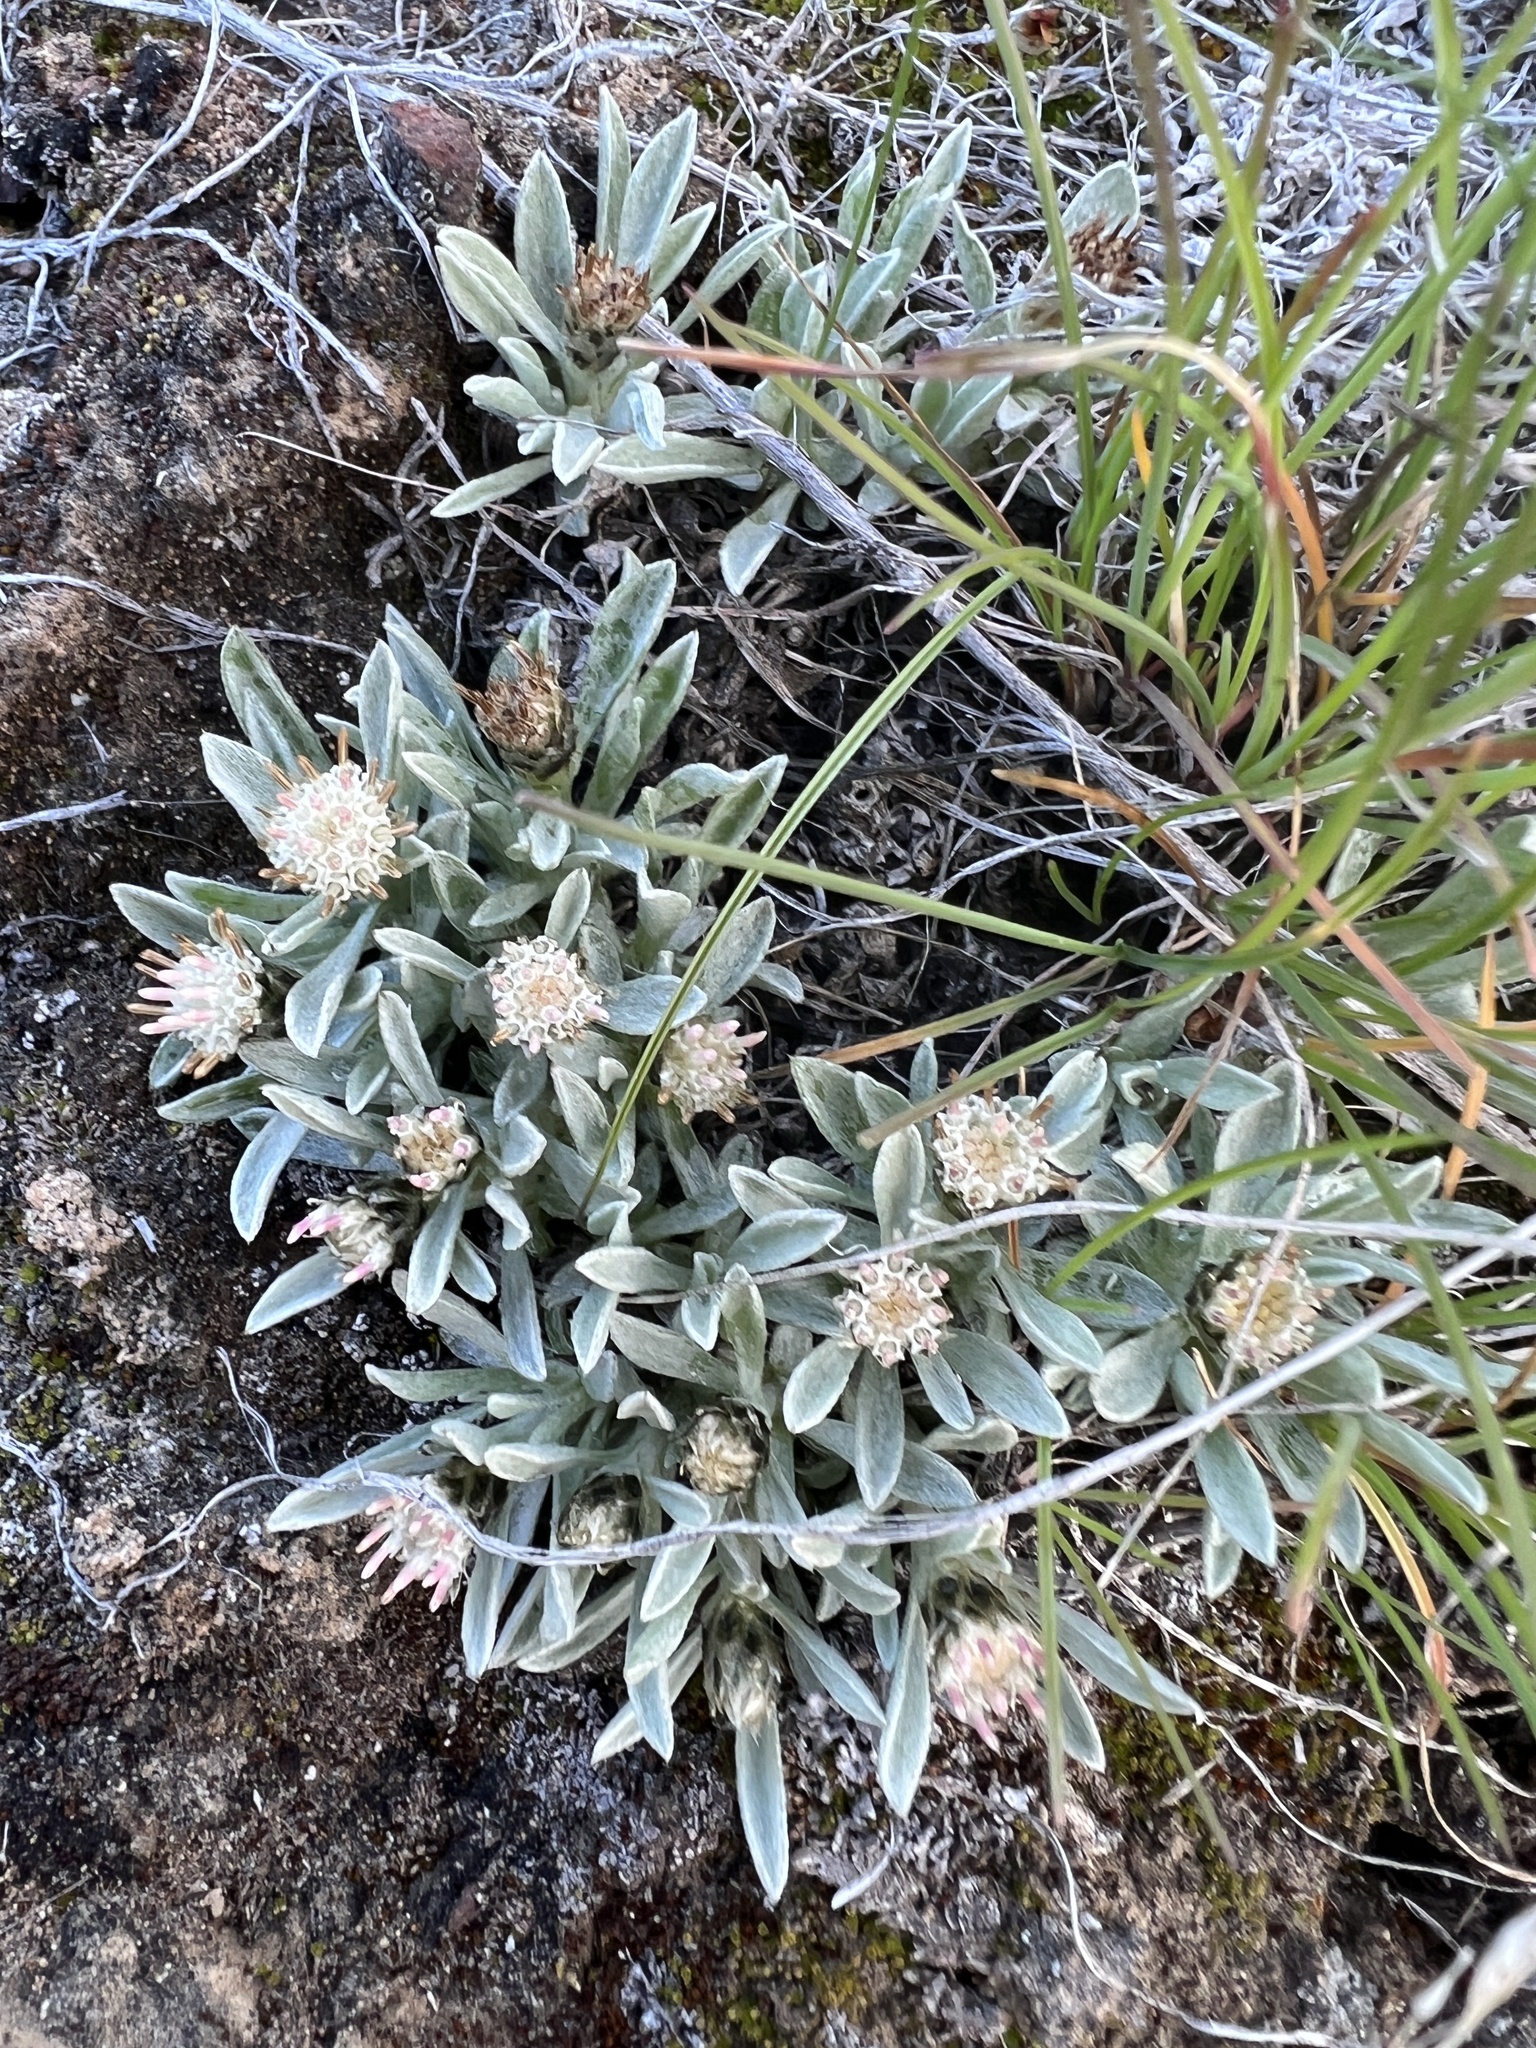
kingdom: Plantae
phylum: Tracheophyta
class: Magnoliopsida
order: Asterales
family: Asteraceae
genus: Antennaria
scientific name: Antennaria dimorpha
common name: Cushion pussytoes
